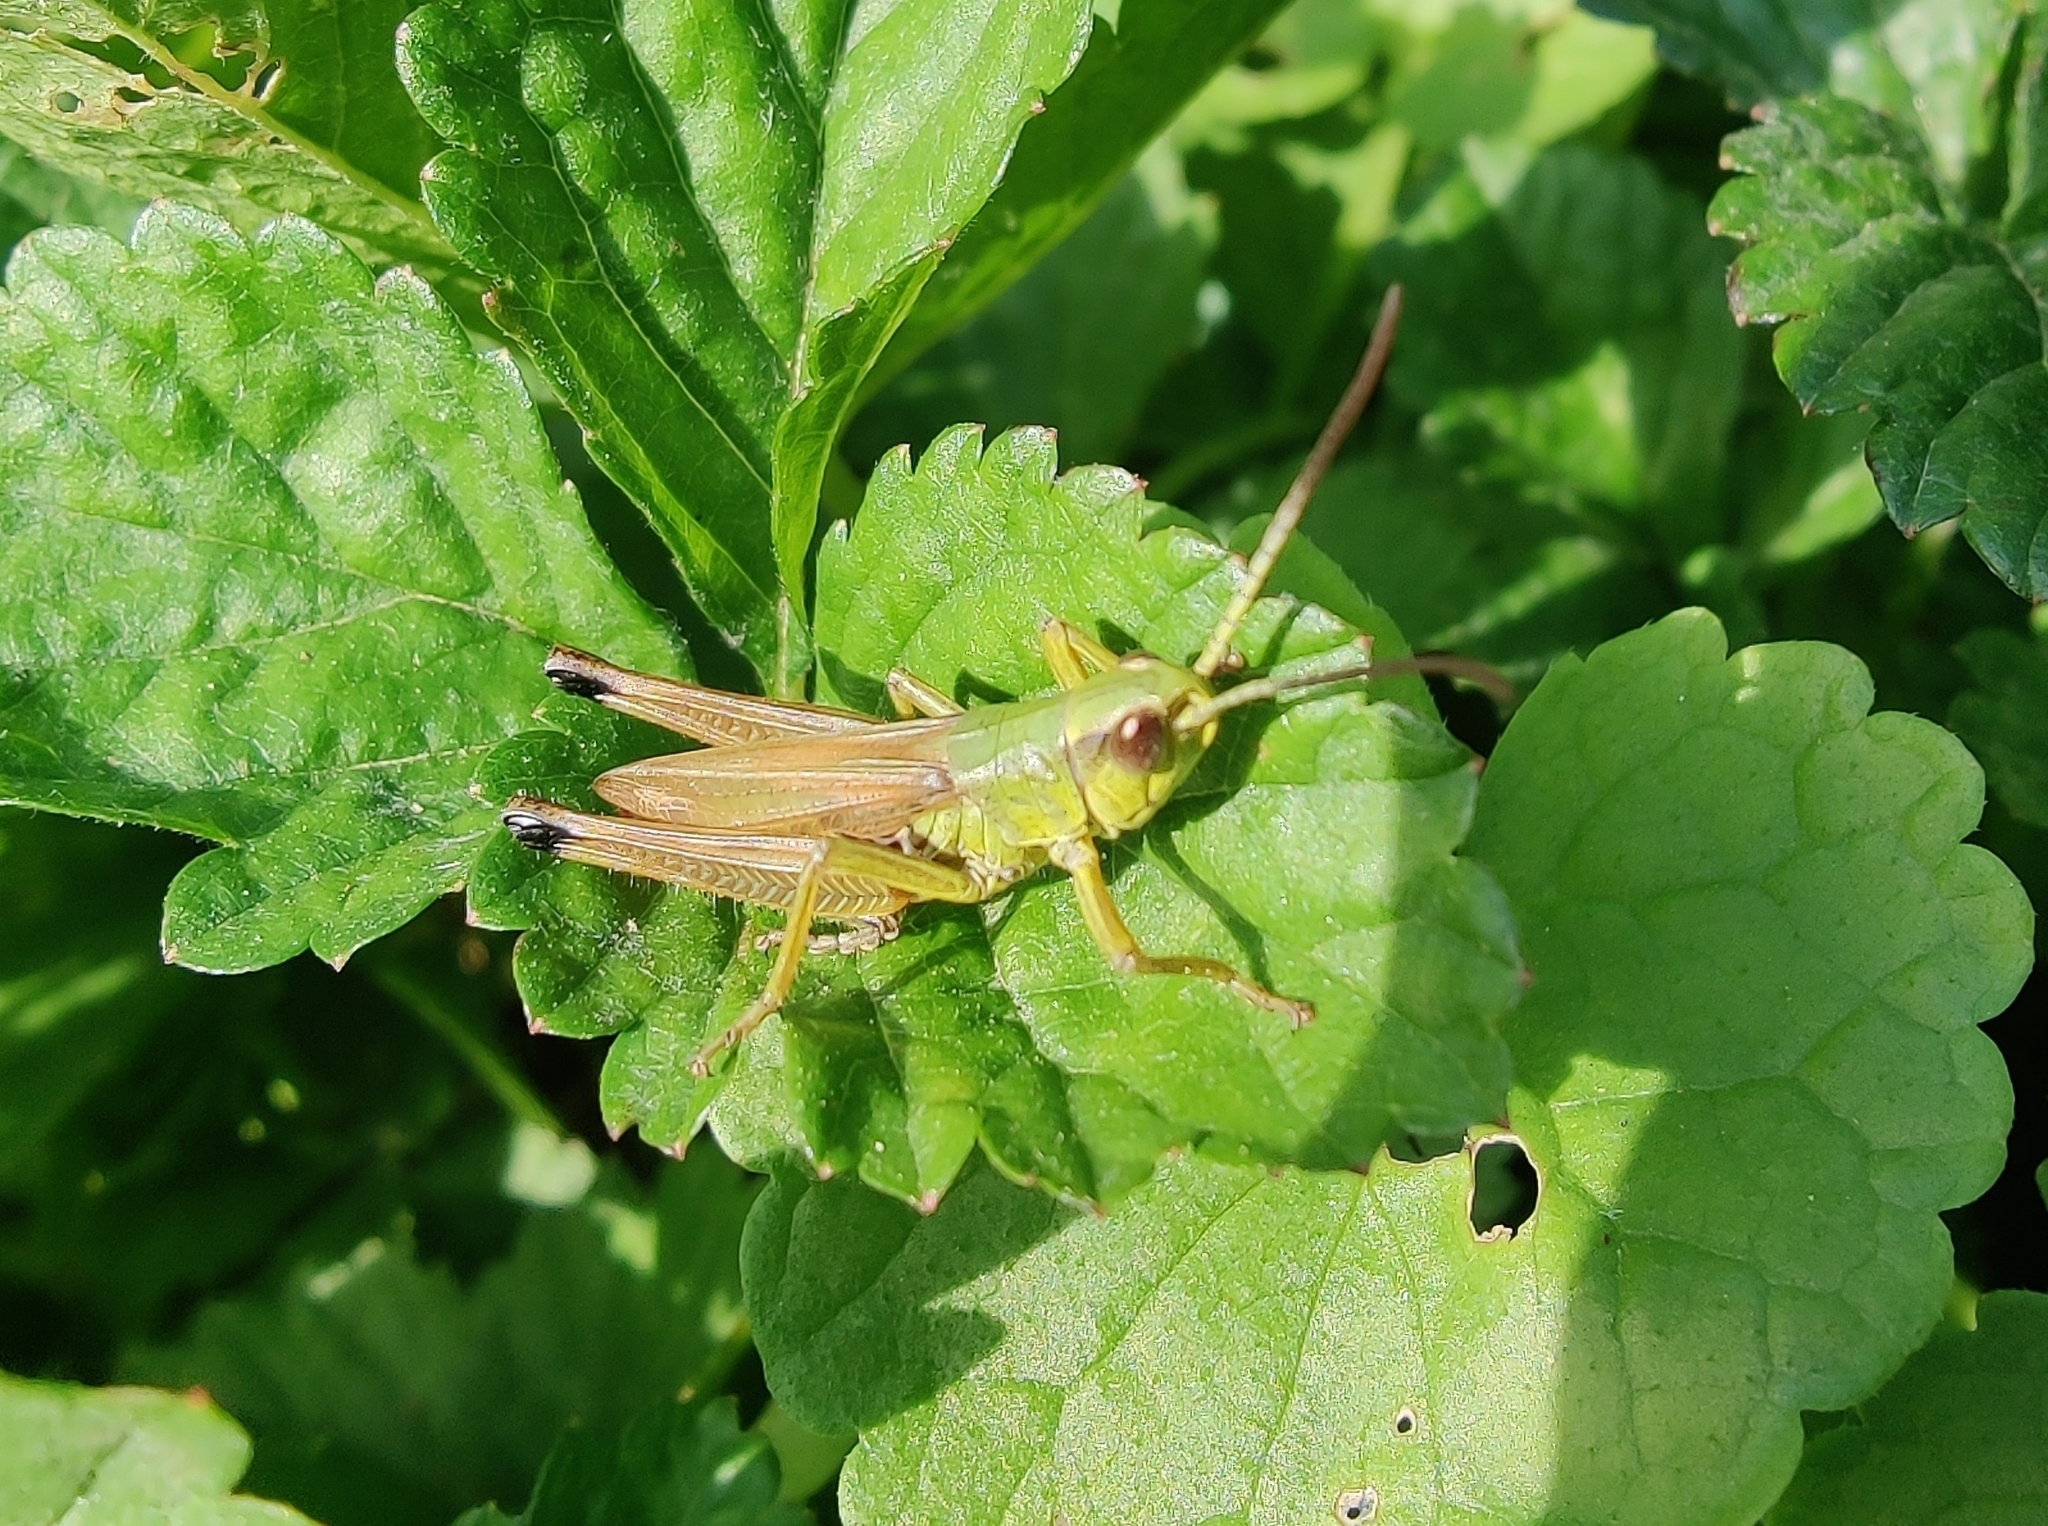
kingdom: Animalia
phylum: Arthropoda
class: Insecta
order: Orthoptera
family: Acrididae
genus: Pseudochorthippus
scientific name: Pseudochorthippus parallelus
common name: Meadow grasshopper
